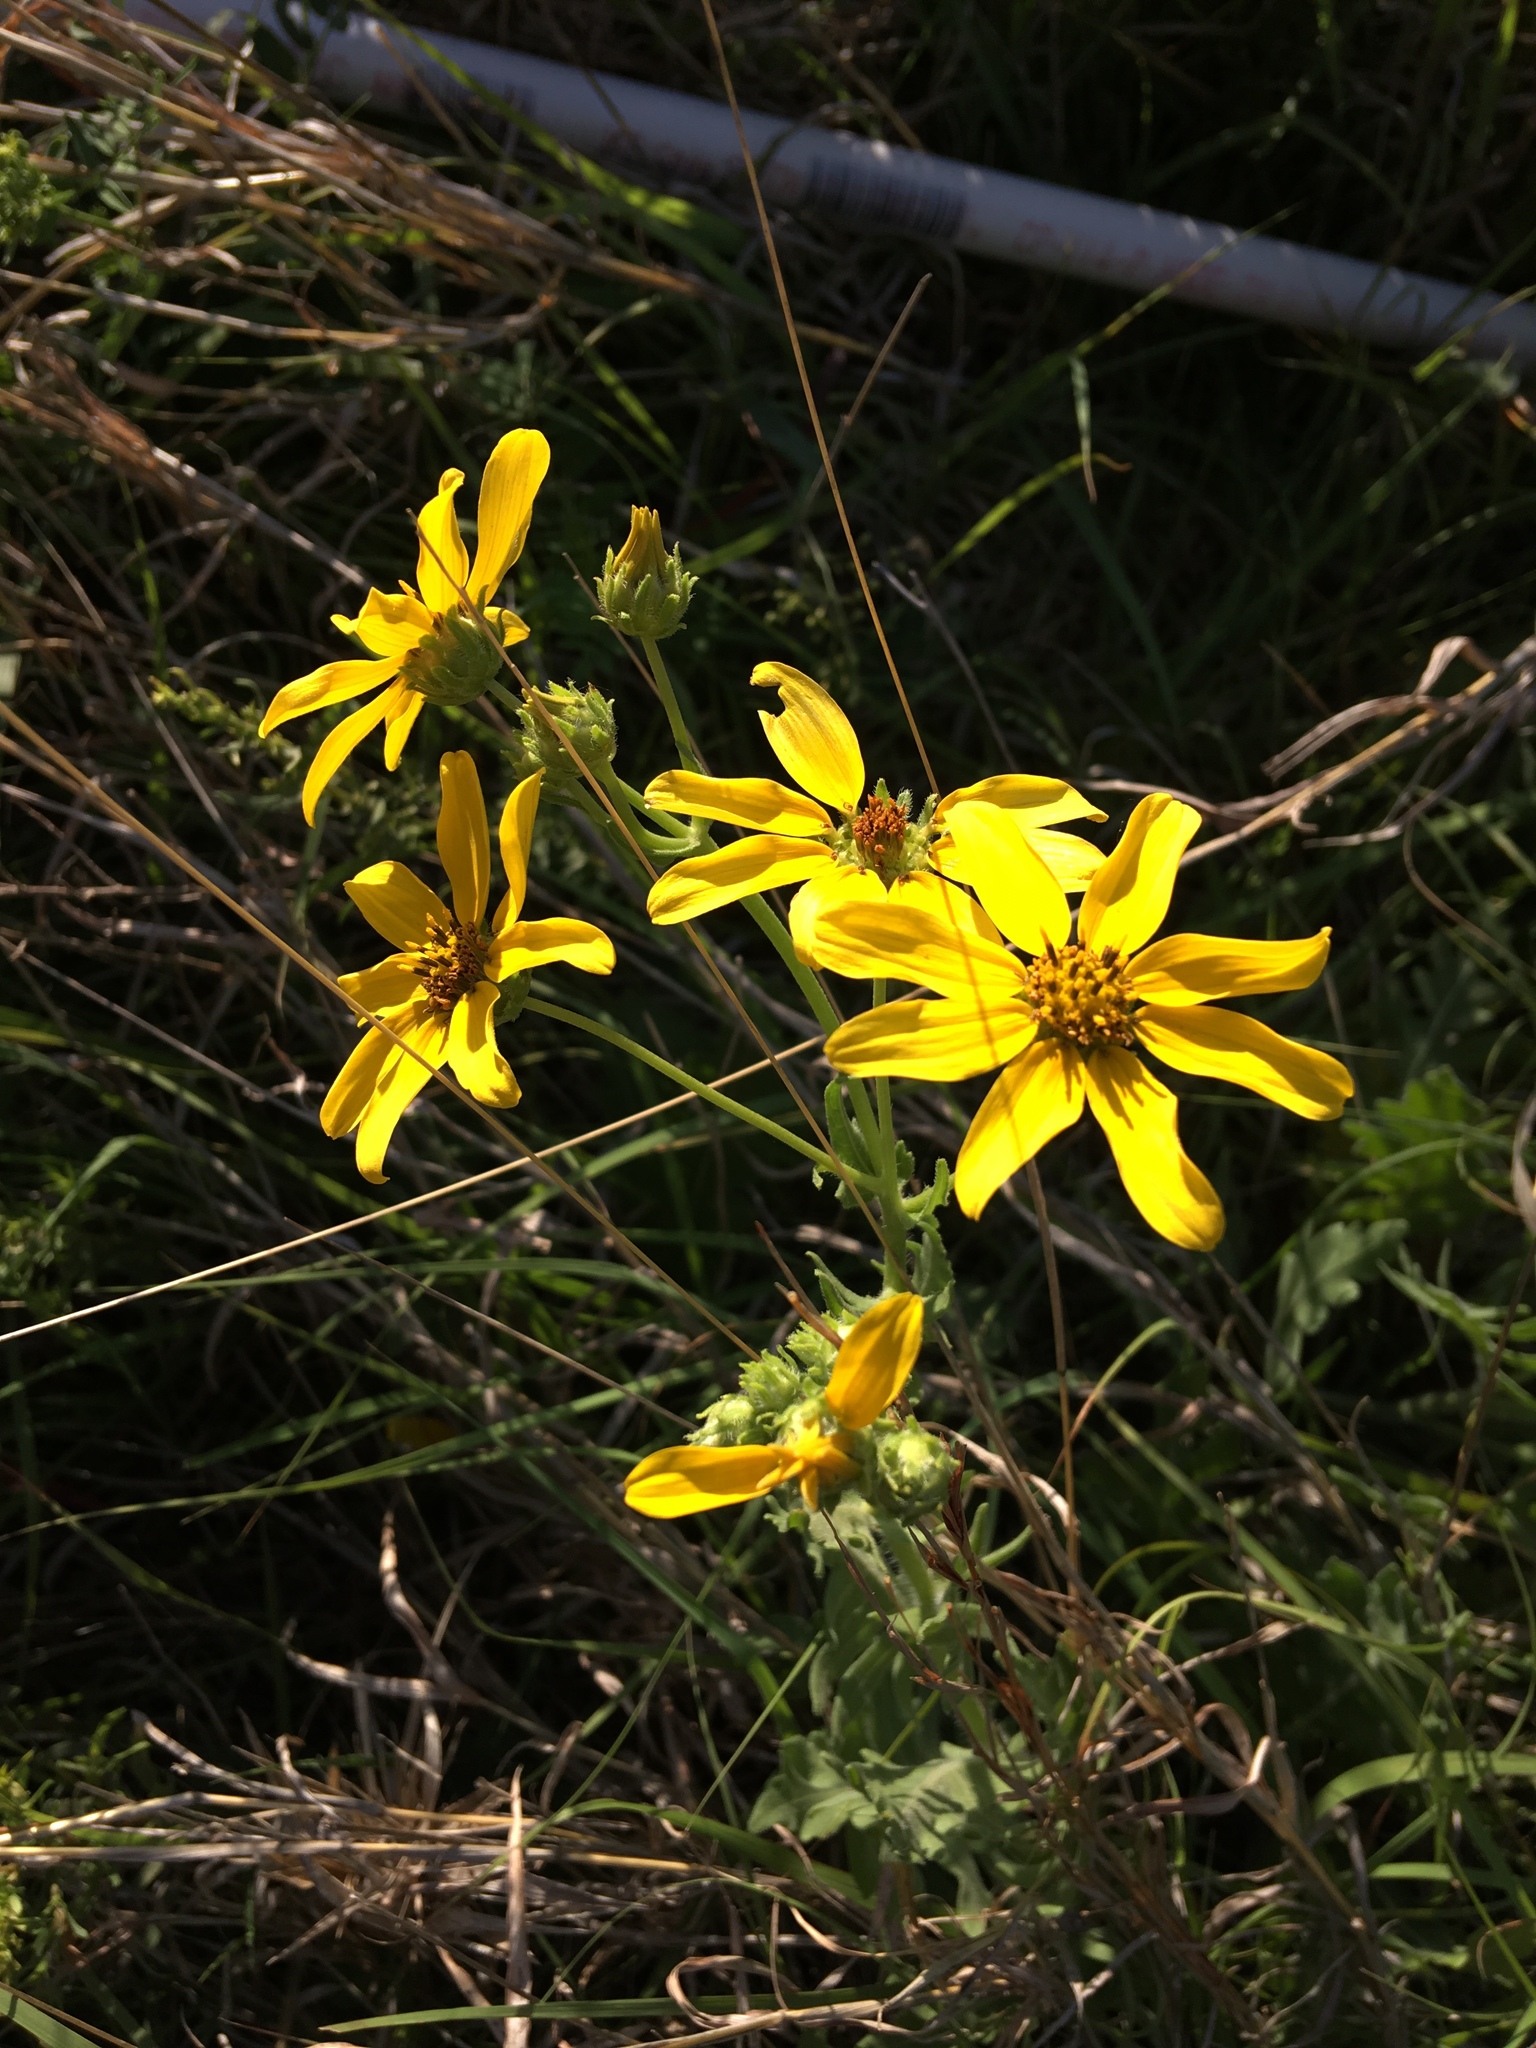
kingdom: Plantae
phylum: Tracheophyta
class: Magnoliopsida
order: Asterales
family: Asteraceae
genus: Engelmannia
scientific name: Engelmannia peristenia
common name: Engelmann's daisy
